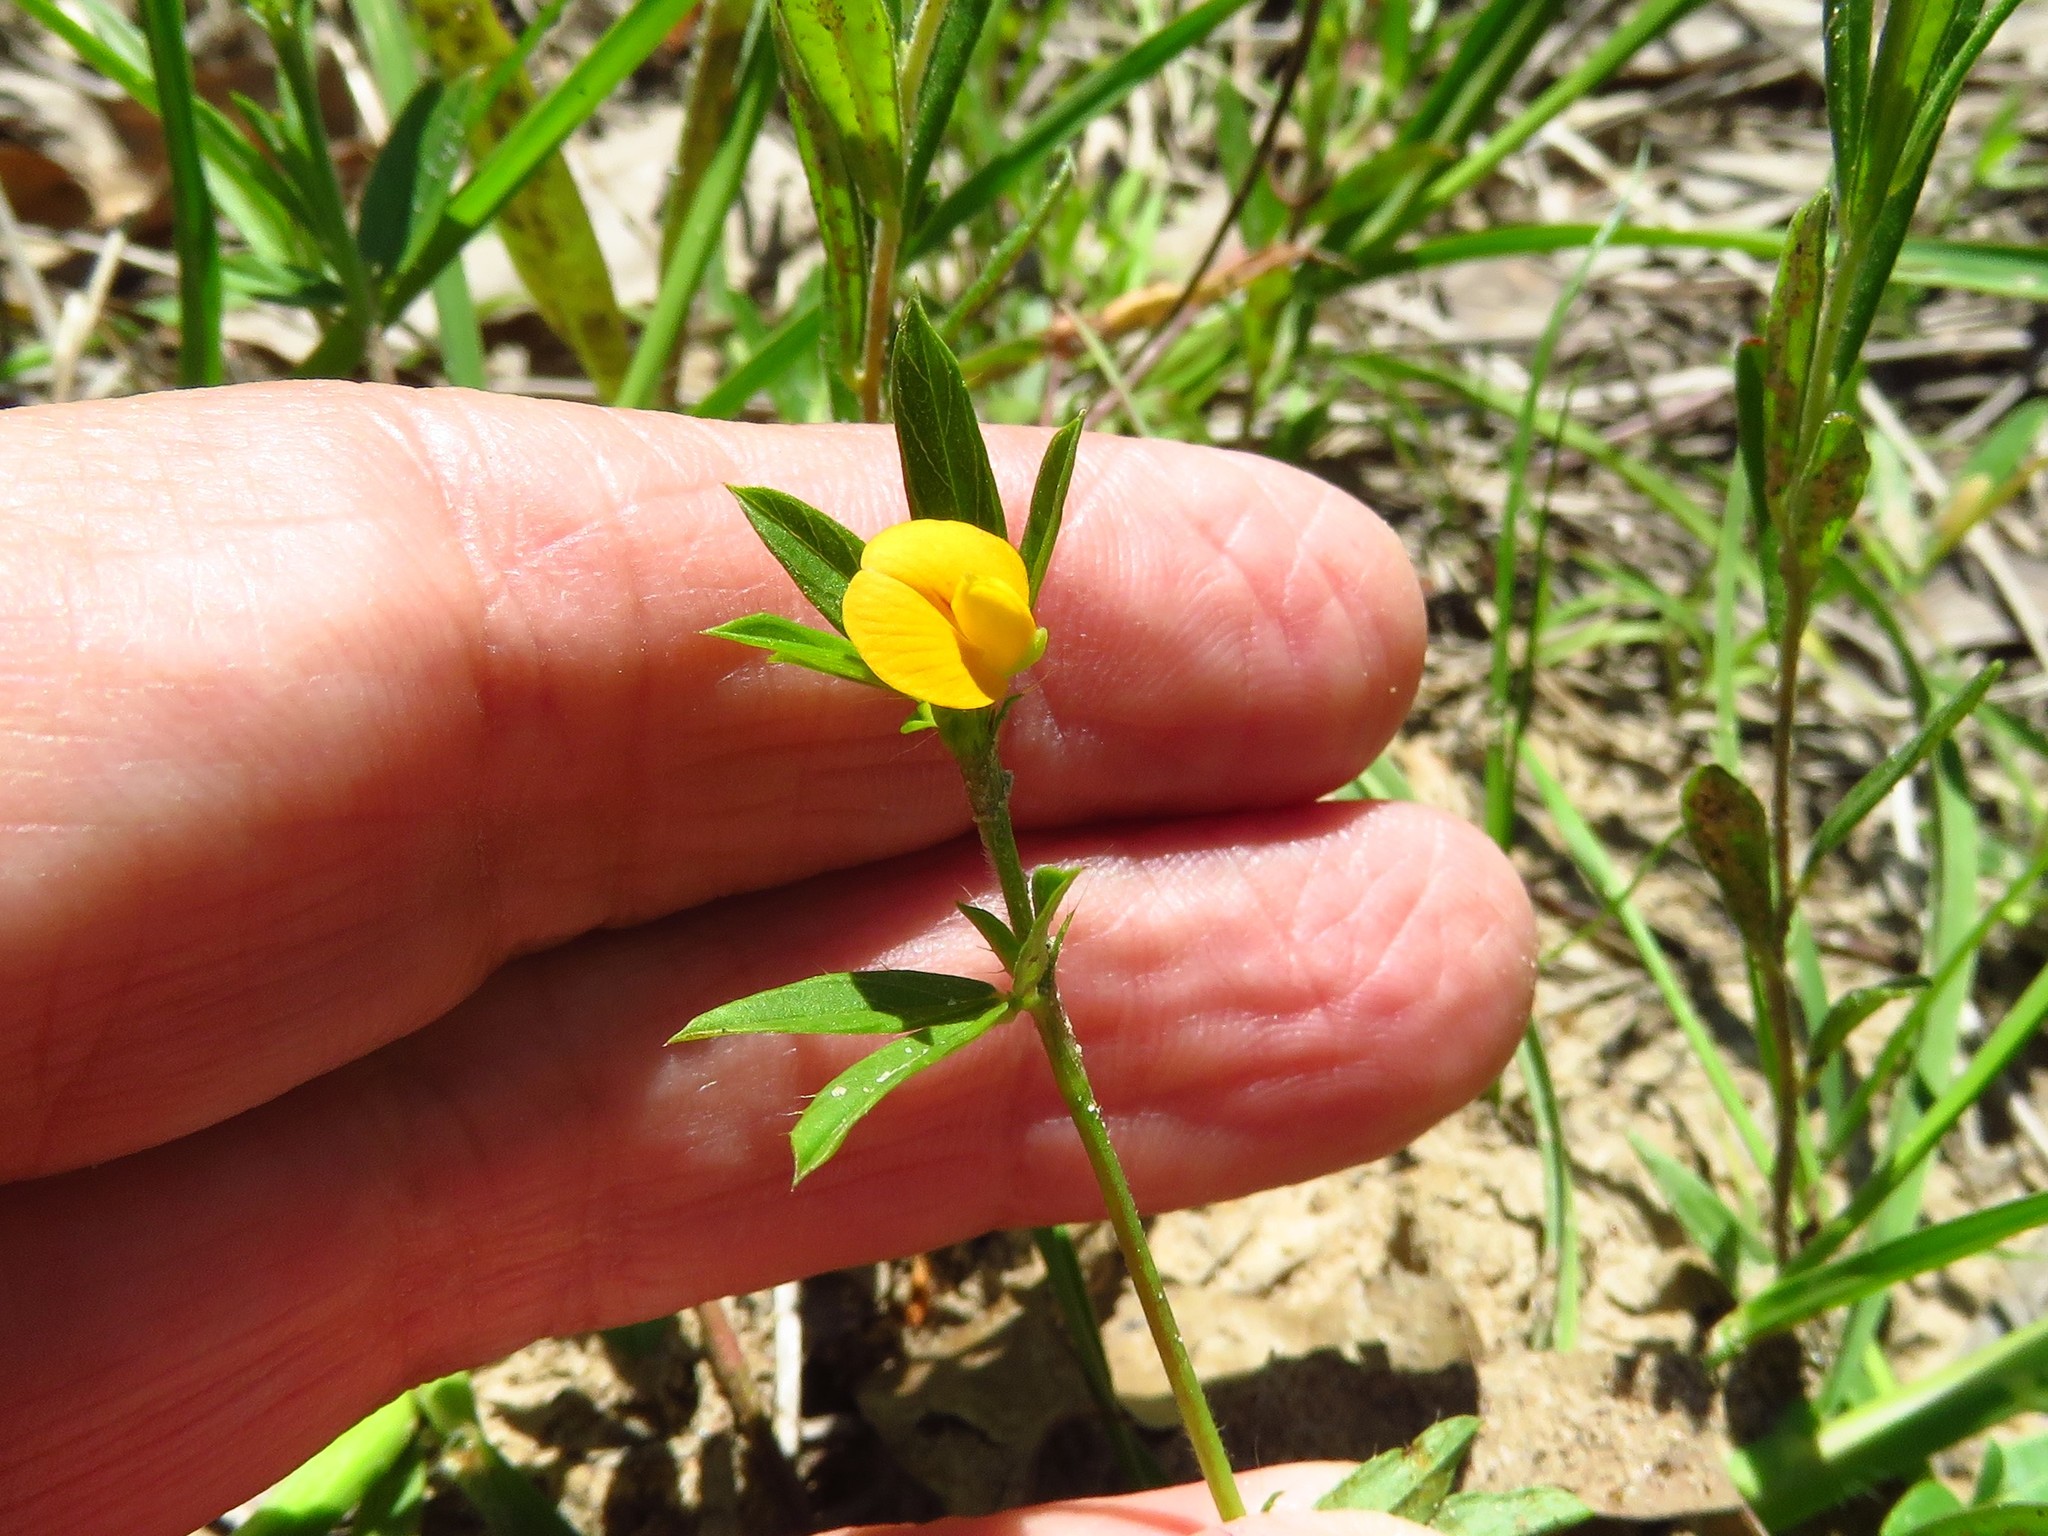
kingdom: Plantae
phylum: Tracheophyta
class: Magnoliopsida
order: Fabales
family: Fabaceae
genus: Stylosanthes
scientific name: Stylosanthes biflora
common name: Two-flower pencil-flower
